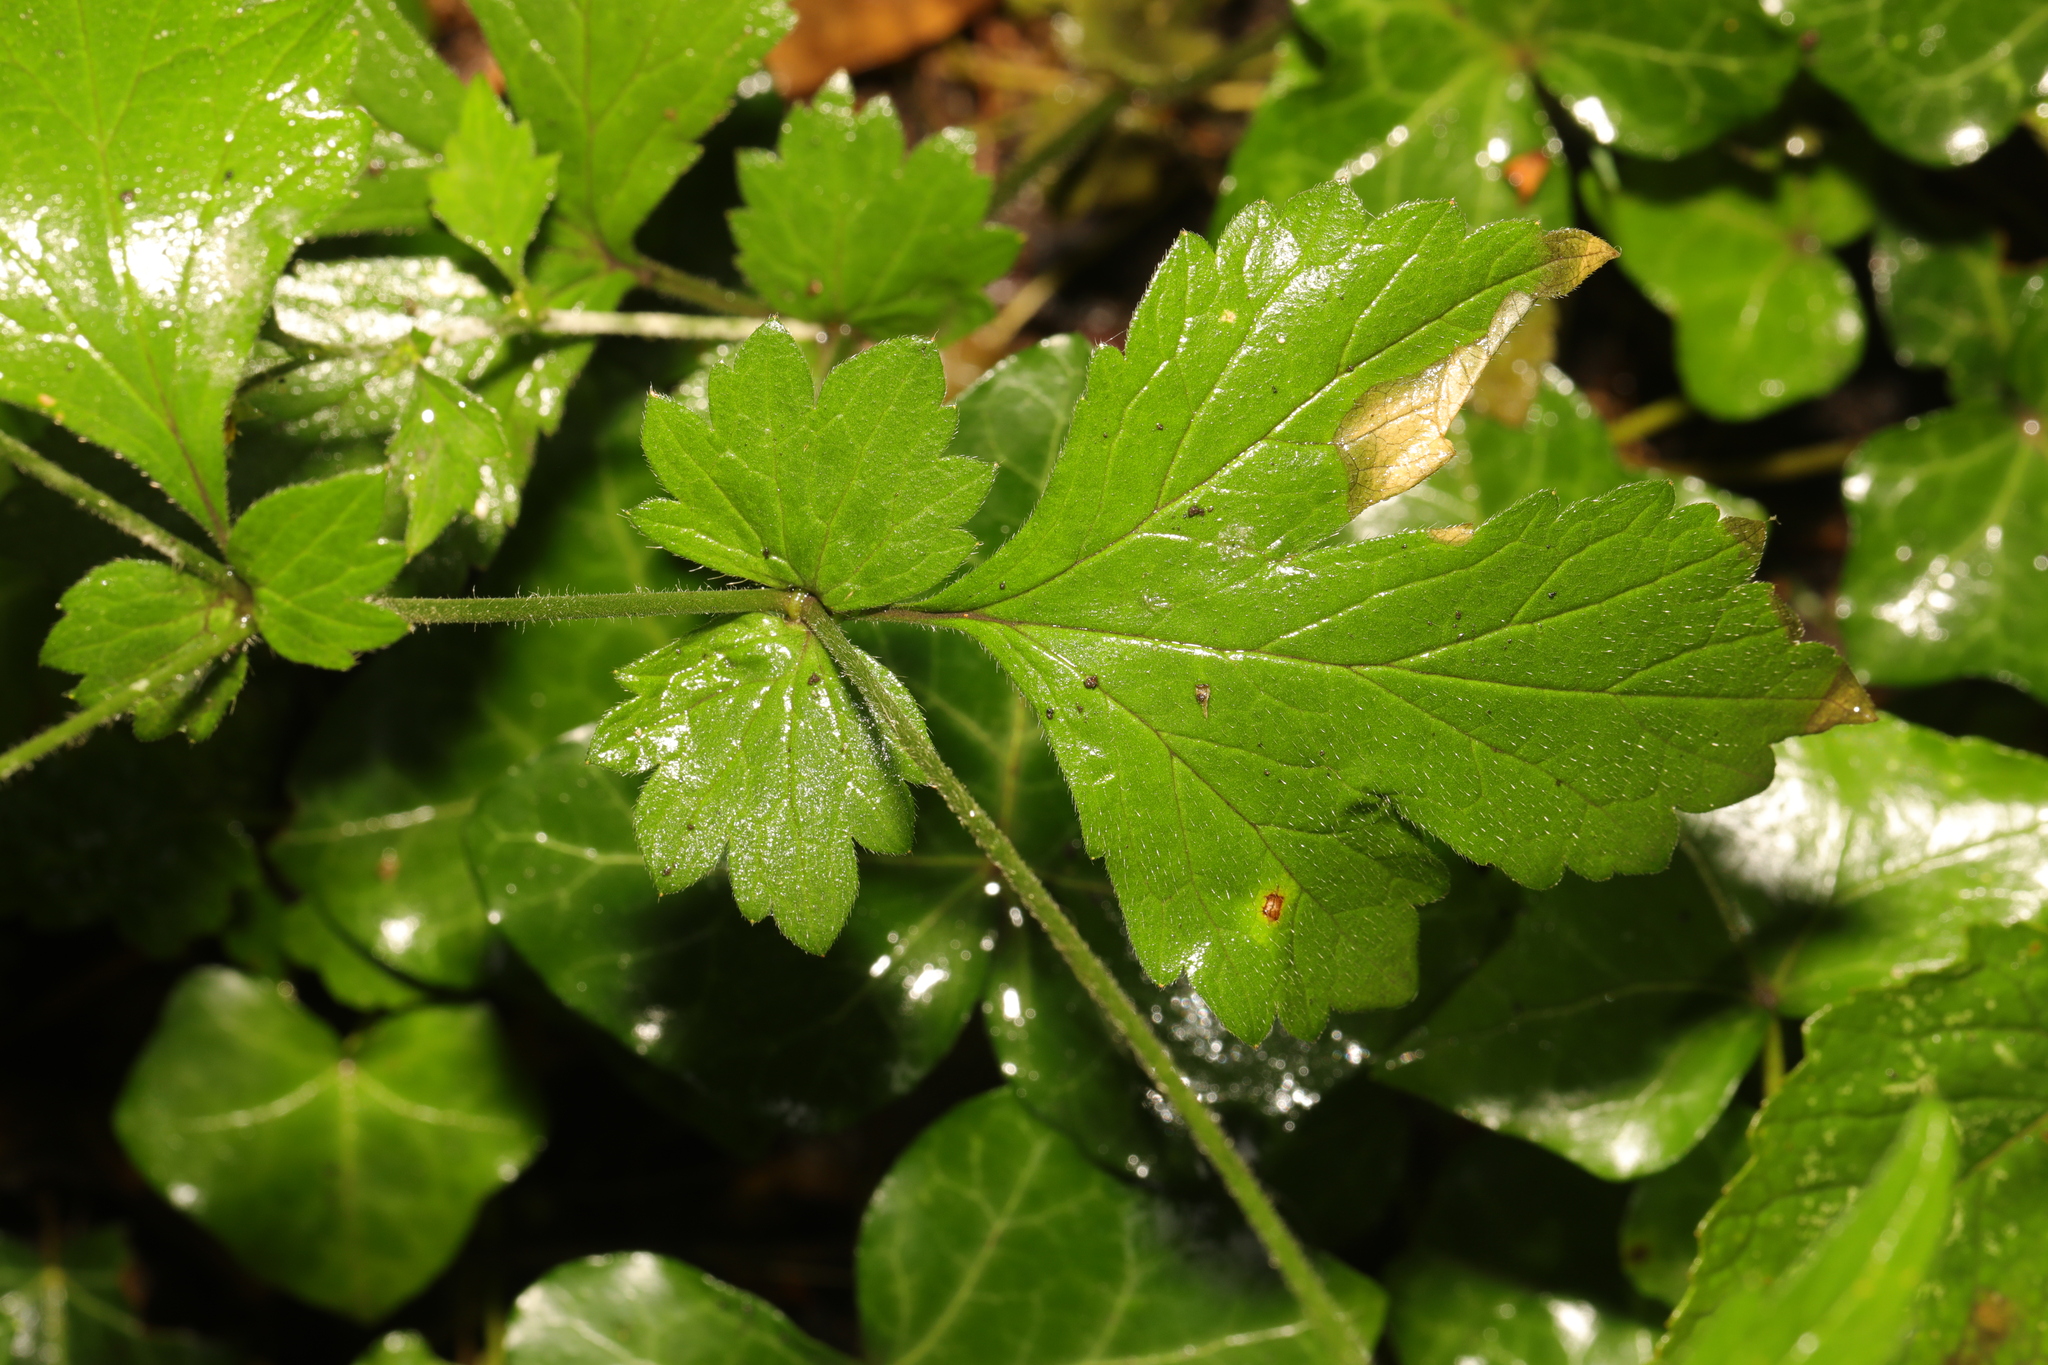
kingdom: Plantae
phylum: Tracheophyta
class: Magnoliopsida
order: Rosales
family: Rosaceae
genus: Geum
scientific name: Geum urbanum
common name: Wood avens
